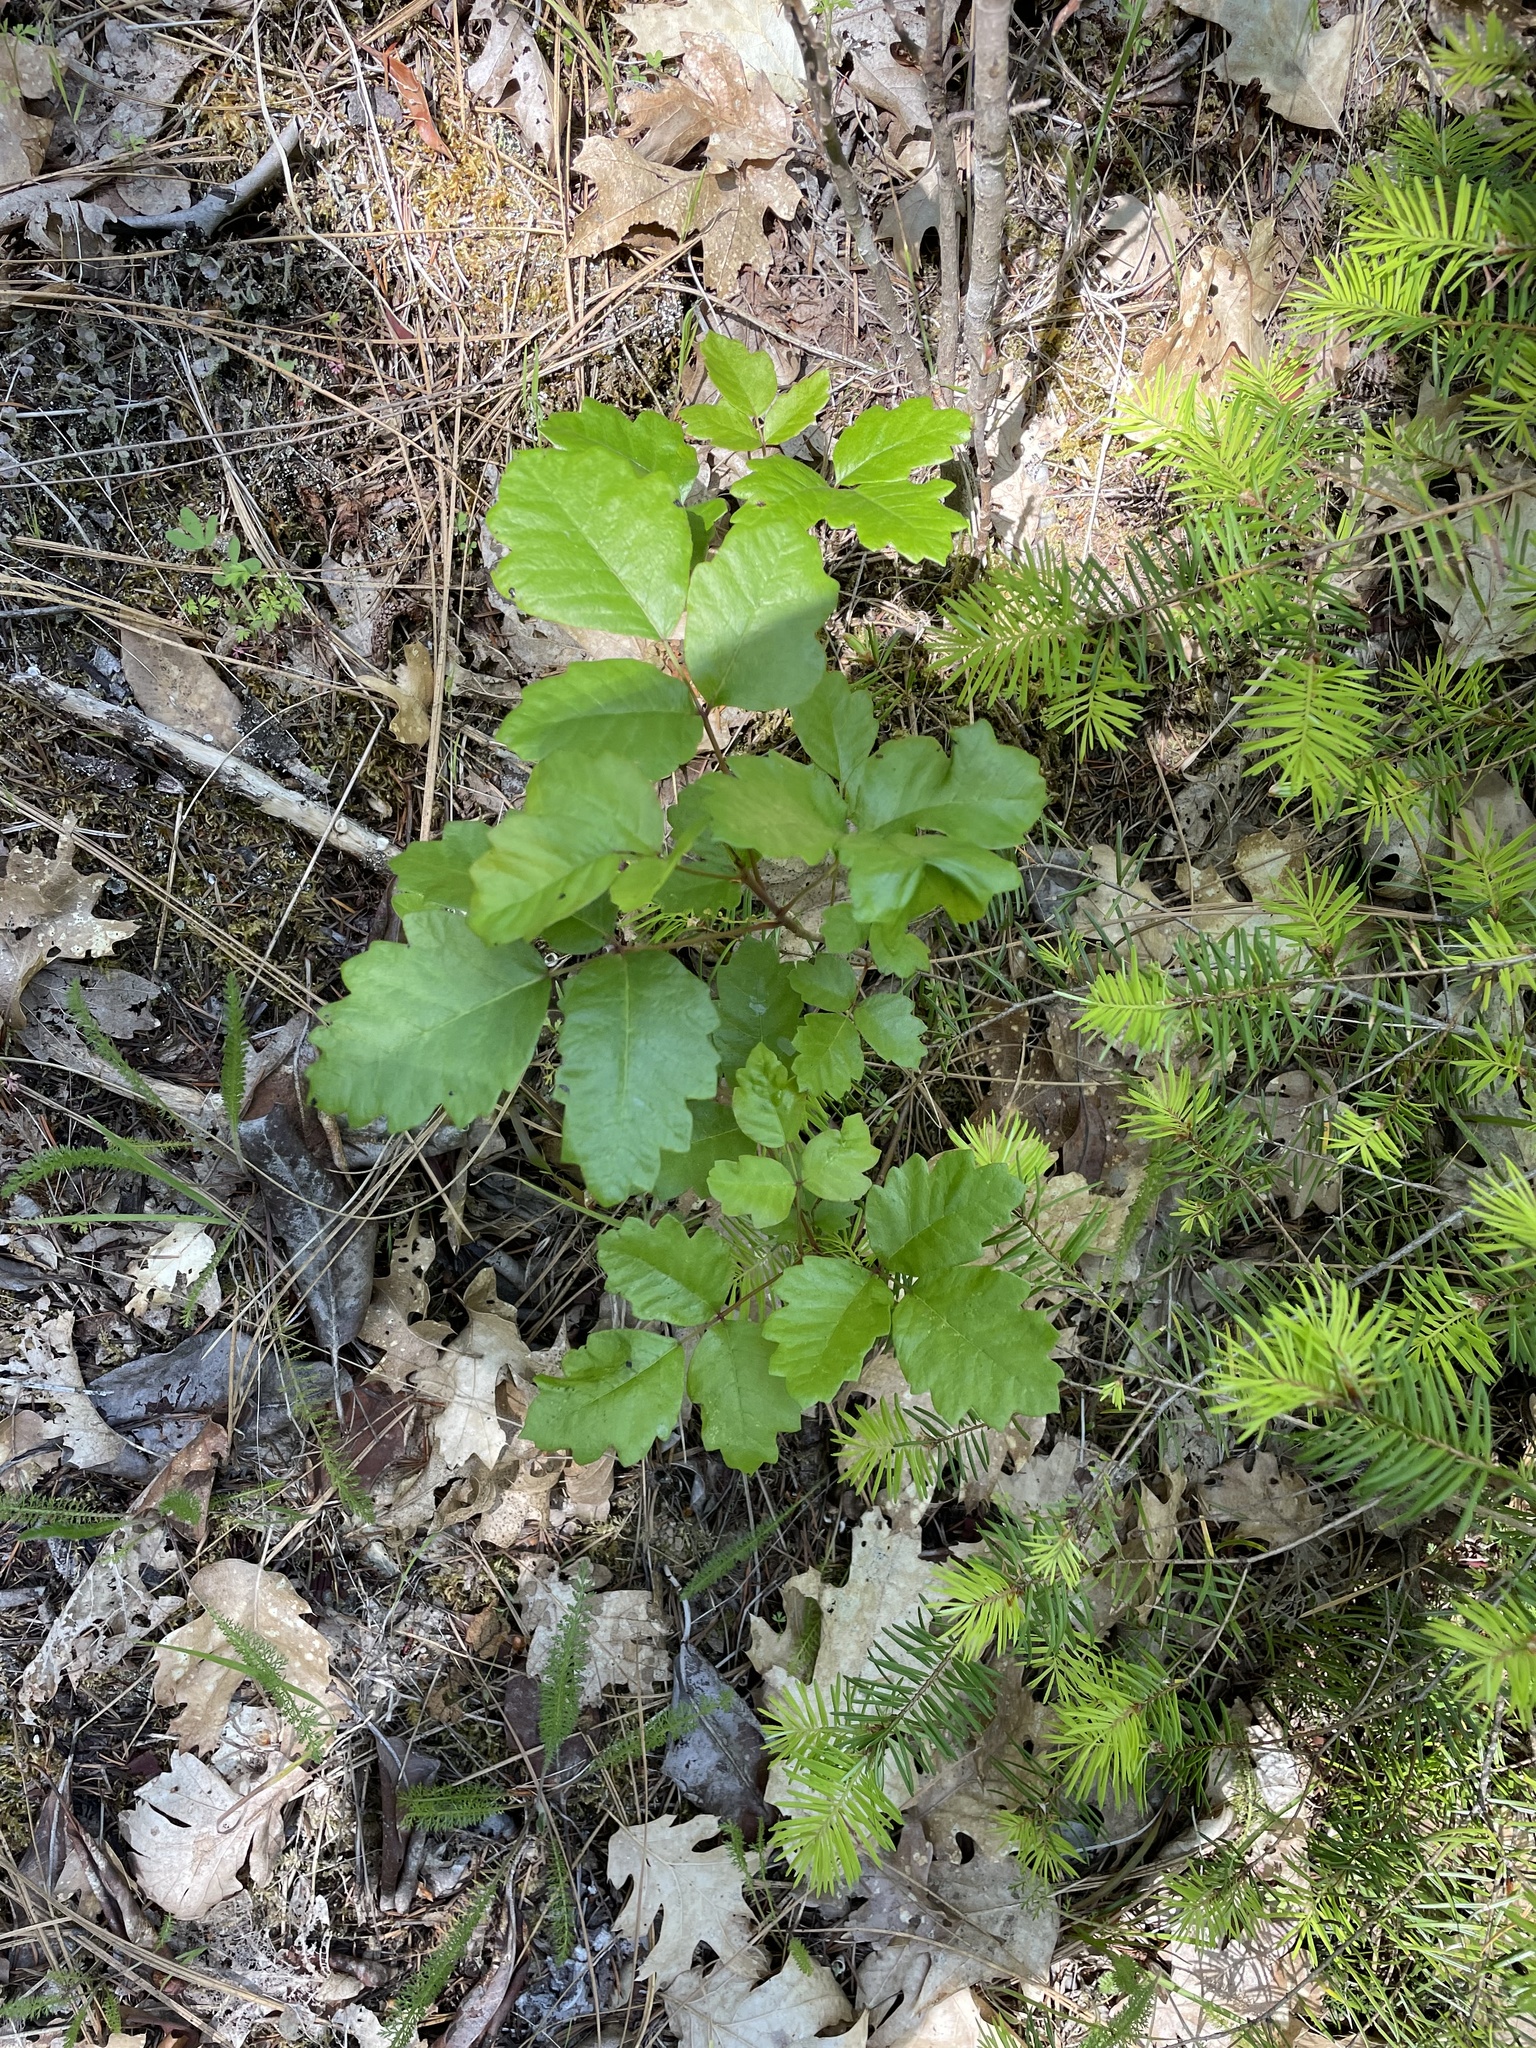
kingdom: Plantae
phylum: Tracheophyta
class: Magnoliopsida
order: Sapindales
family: Anacardiaceae
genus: Toxicodendron
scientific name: Toxicodendron diversilobum
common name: Pacific poison-oak
